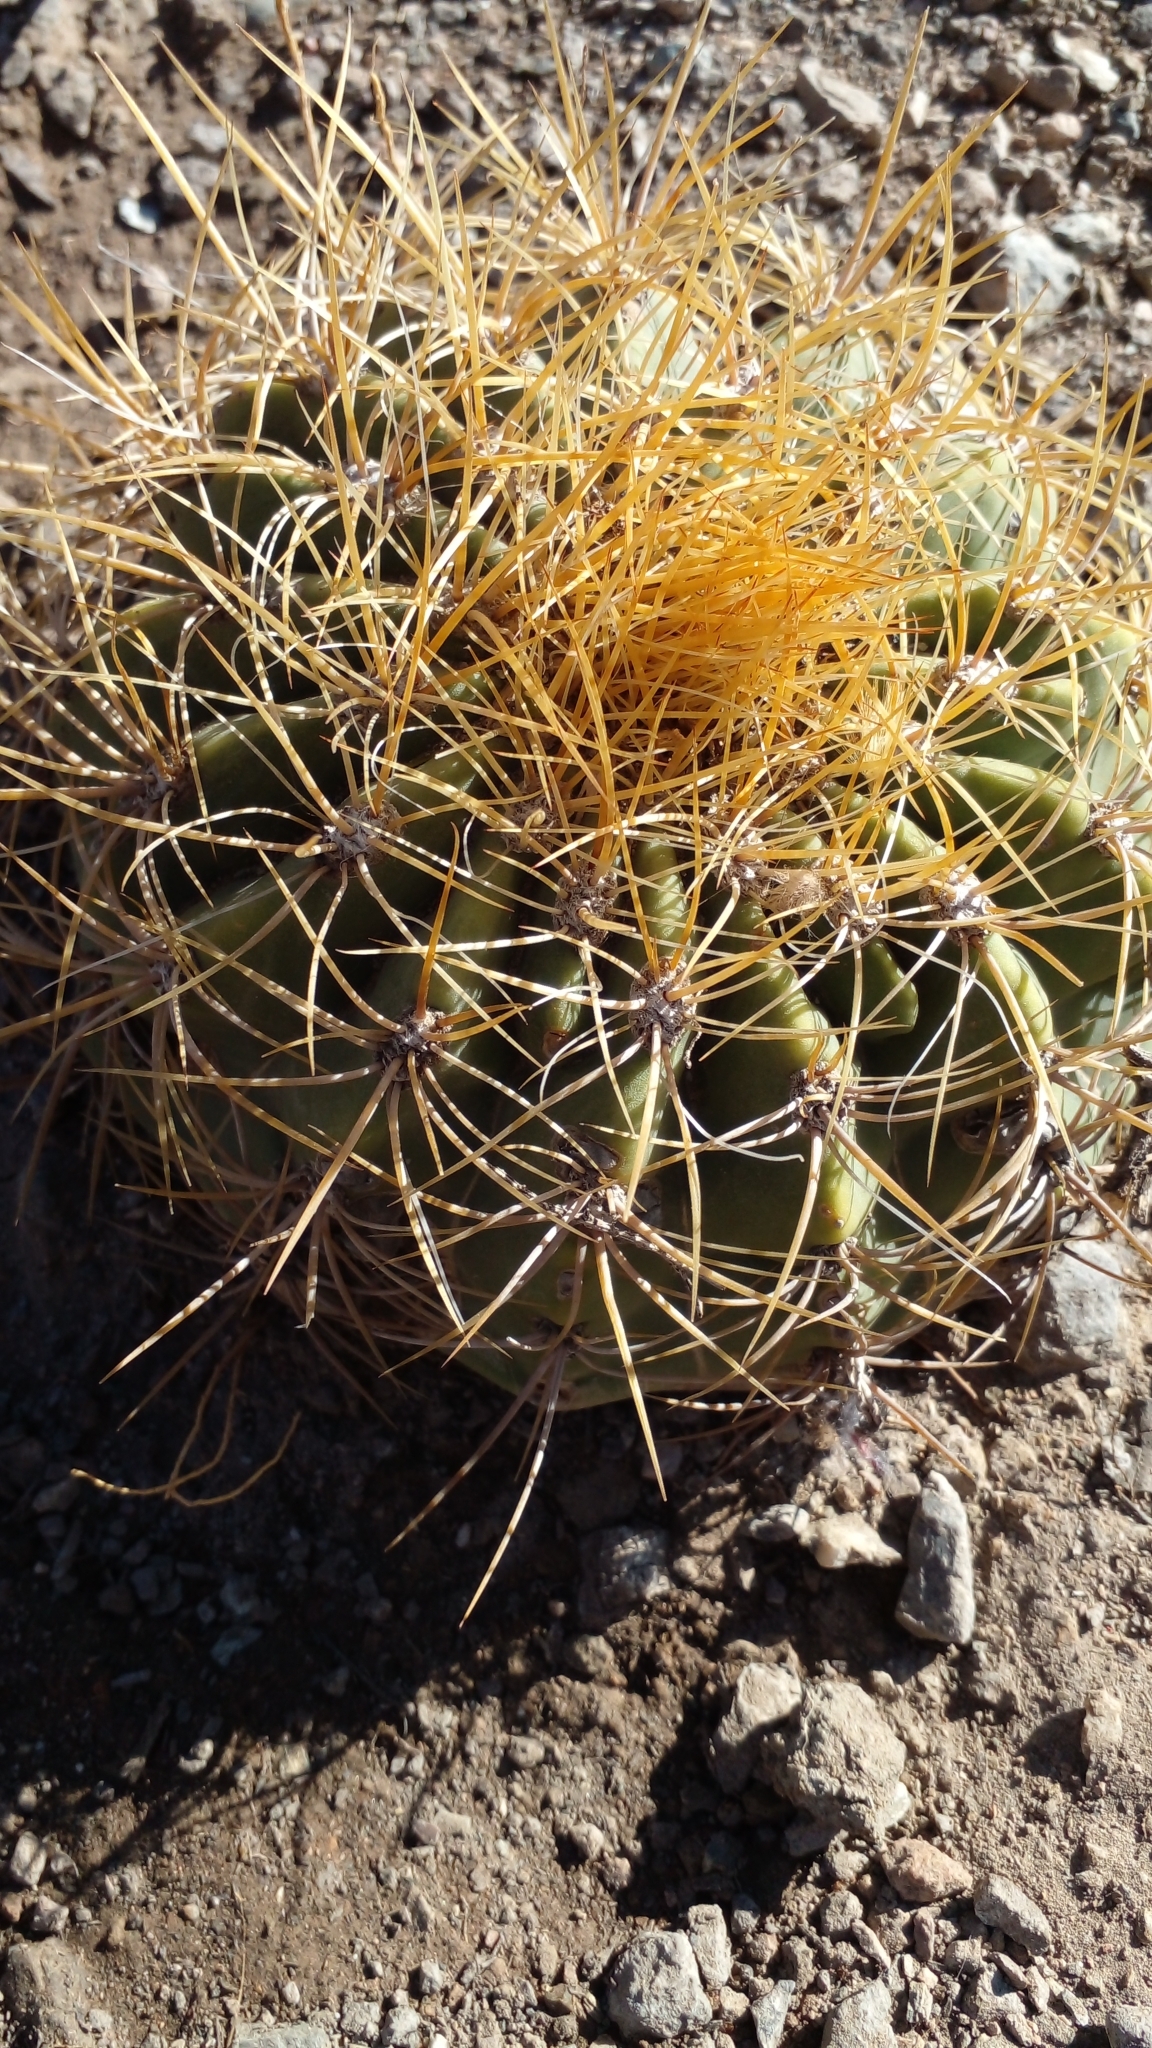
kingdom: Plantae
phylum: Tracheophyta
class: Magnoliopsida
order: Caryophyllales
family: Cactaceae
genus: Denmoza
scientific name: Denmoza rhodacantha
